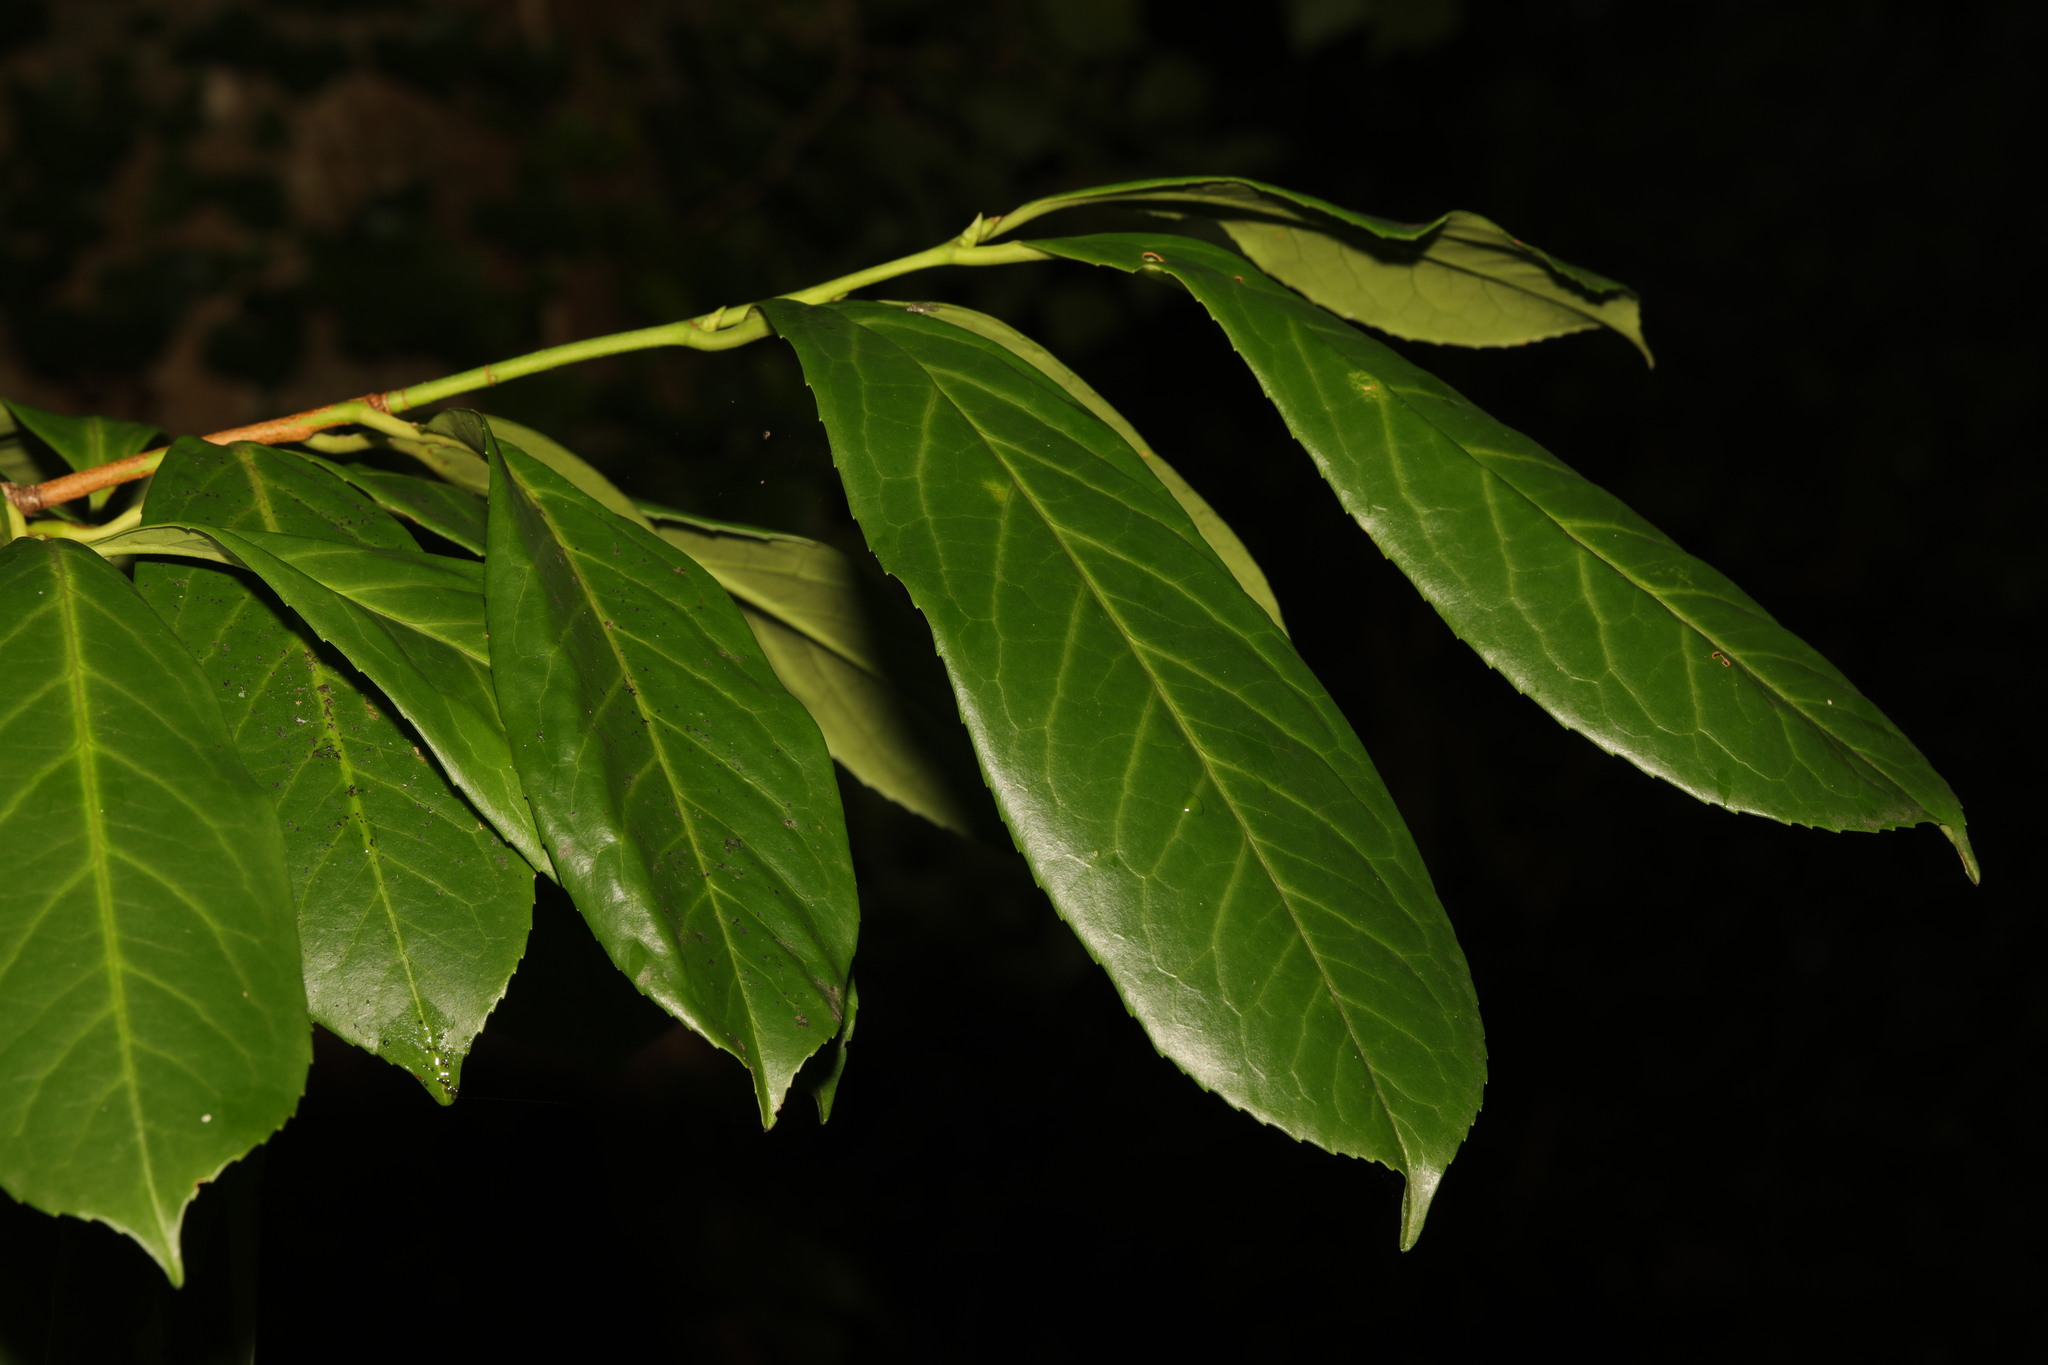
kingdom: Plantae
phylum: Tracheophyta
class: Magnoliopsida
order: Rosales
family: Rosaceae
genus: Prunus
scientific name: Prunus laurocerasus
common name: Cherry laurel
